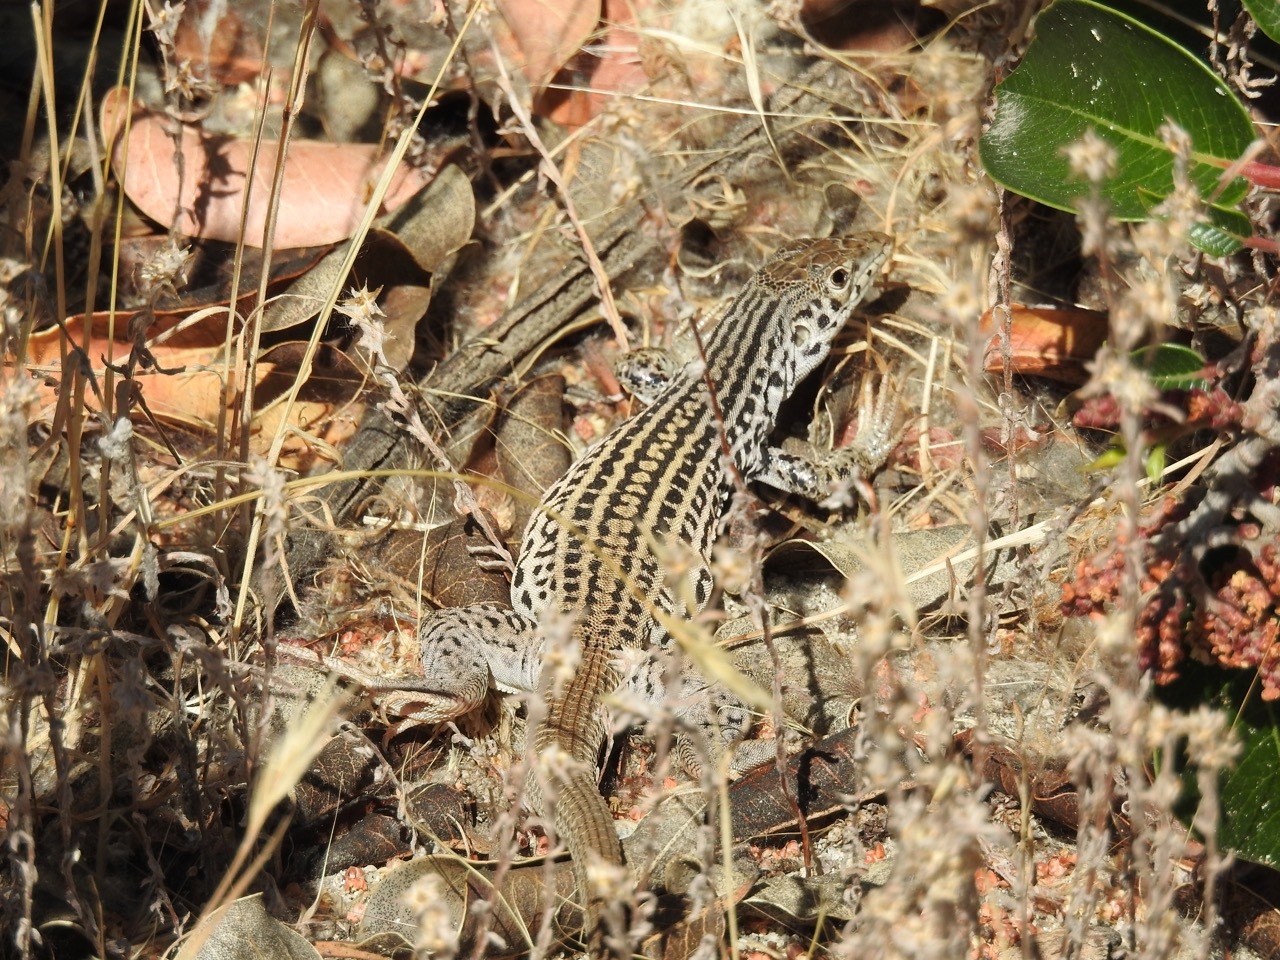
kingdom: Animalia
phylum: Chordata
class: Squamata
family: Teiidae
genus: Aspidoscelis
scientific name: Aspidoscelis tigris
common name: Tiger whiptail
